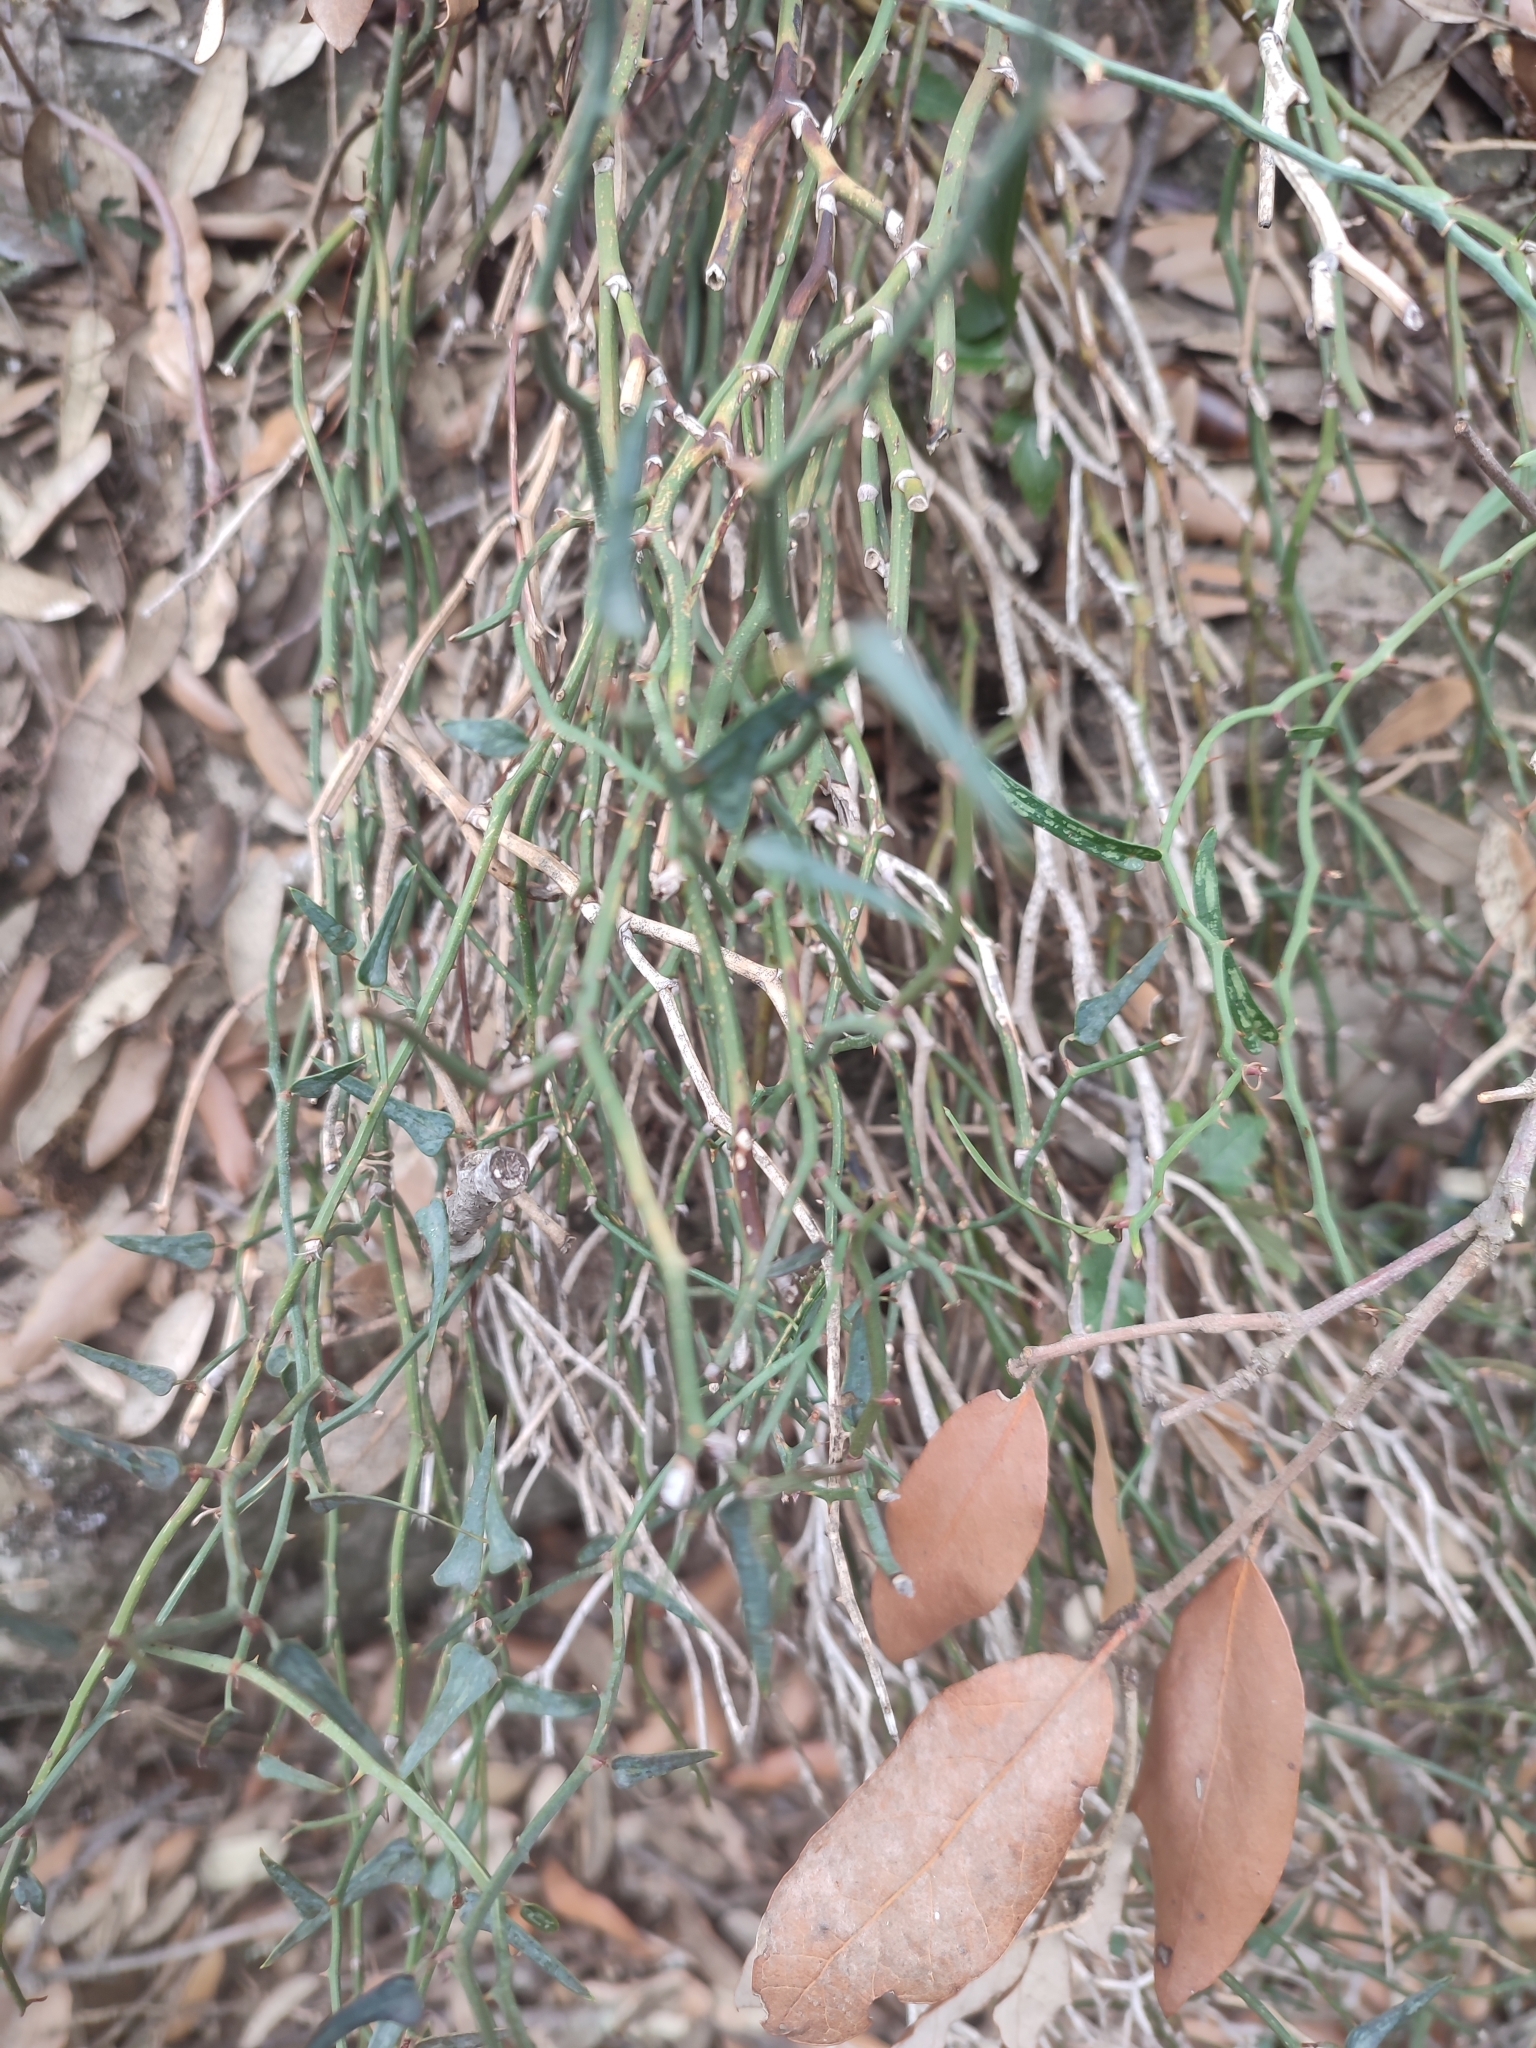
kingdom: Plantae
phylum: Tracheophyta
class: Liliopsida
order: Liliales
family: Smilacaceae
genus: Smilax
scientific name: Smilax aspera
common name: Common smilax
